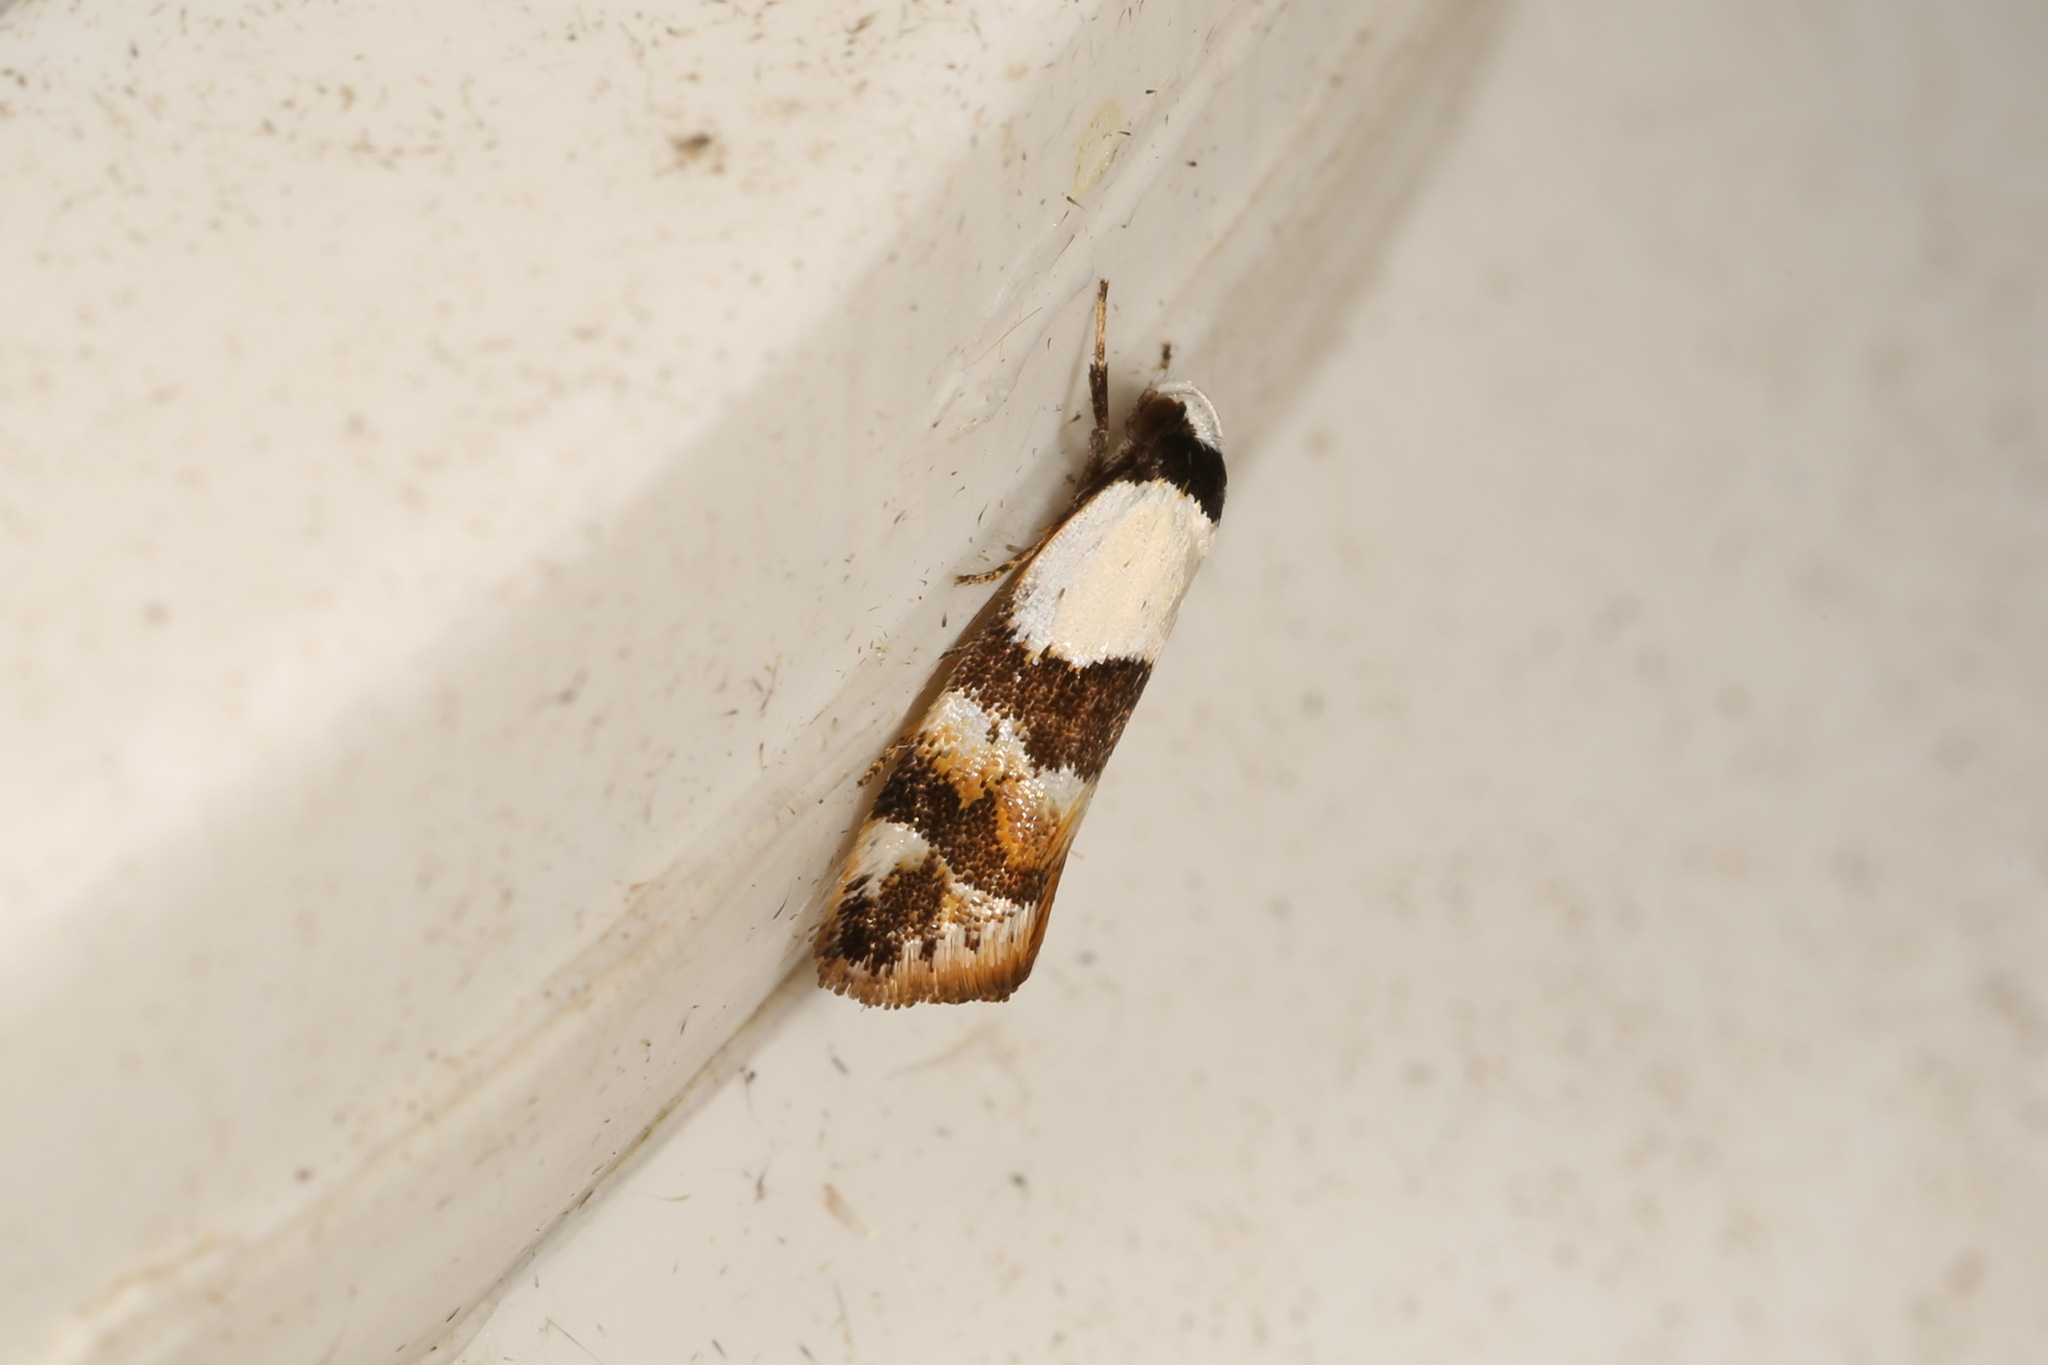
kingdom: Animalia
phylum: Arthropoda
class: Insecta
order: Lepidoptera
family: Oecophoridae
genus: Zonopetala
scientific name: Zonopetala decisana
